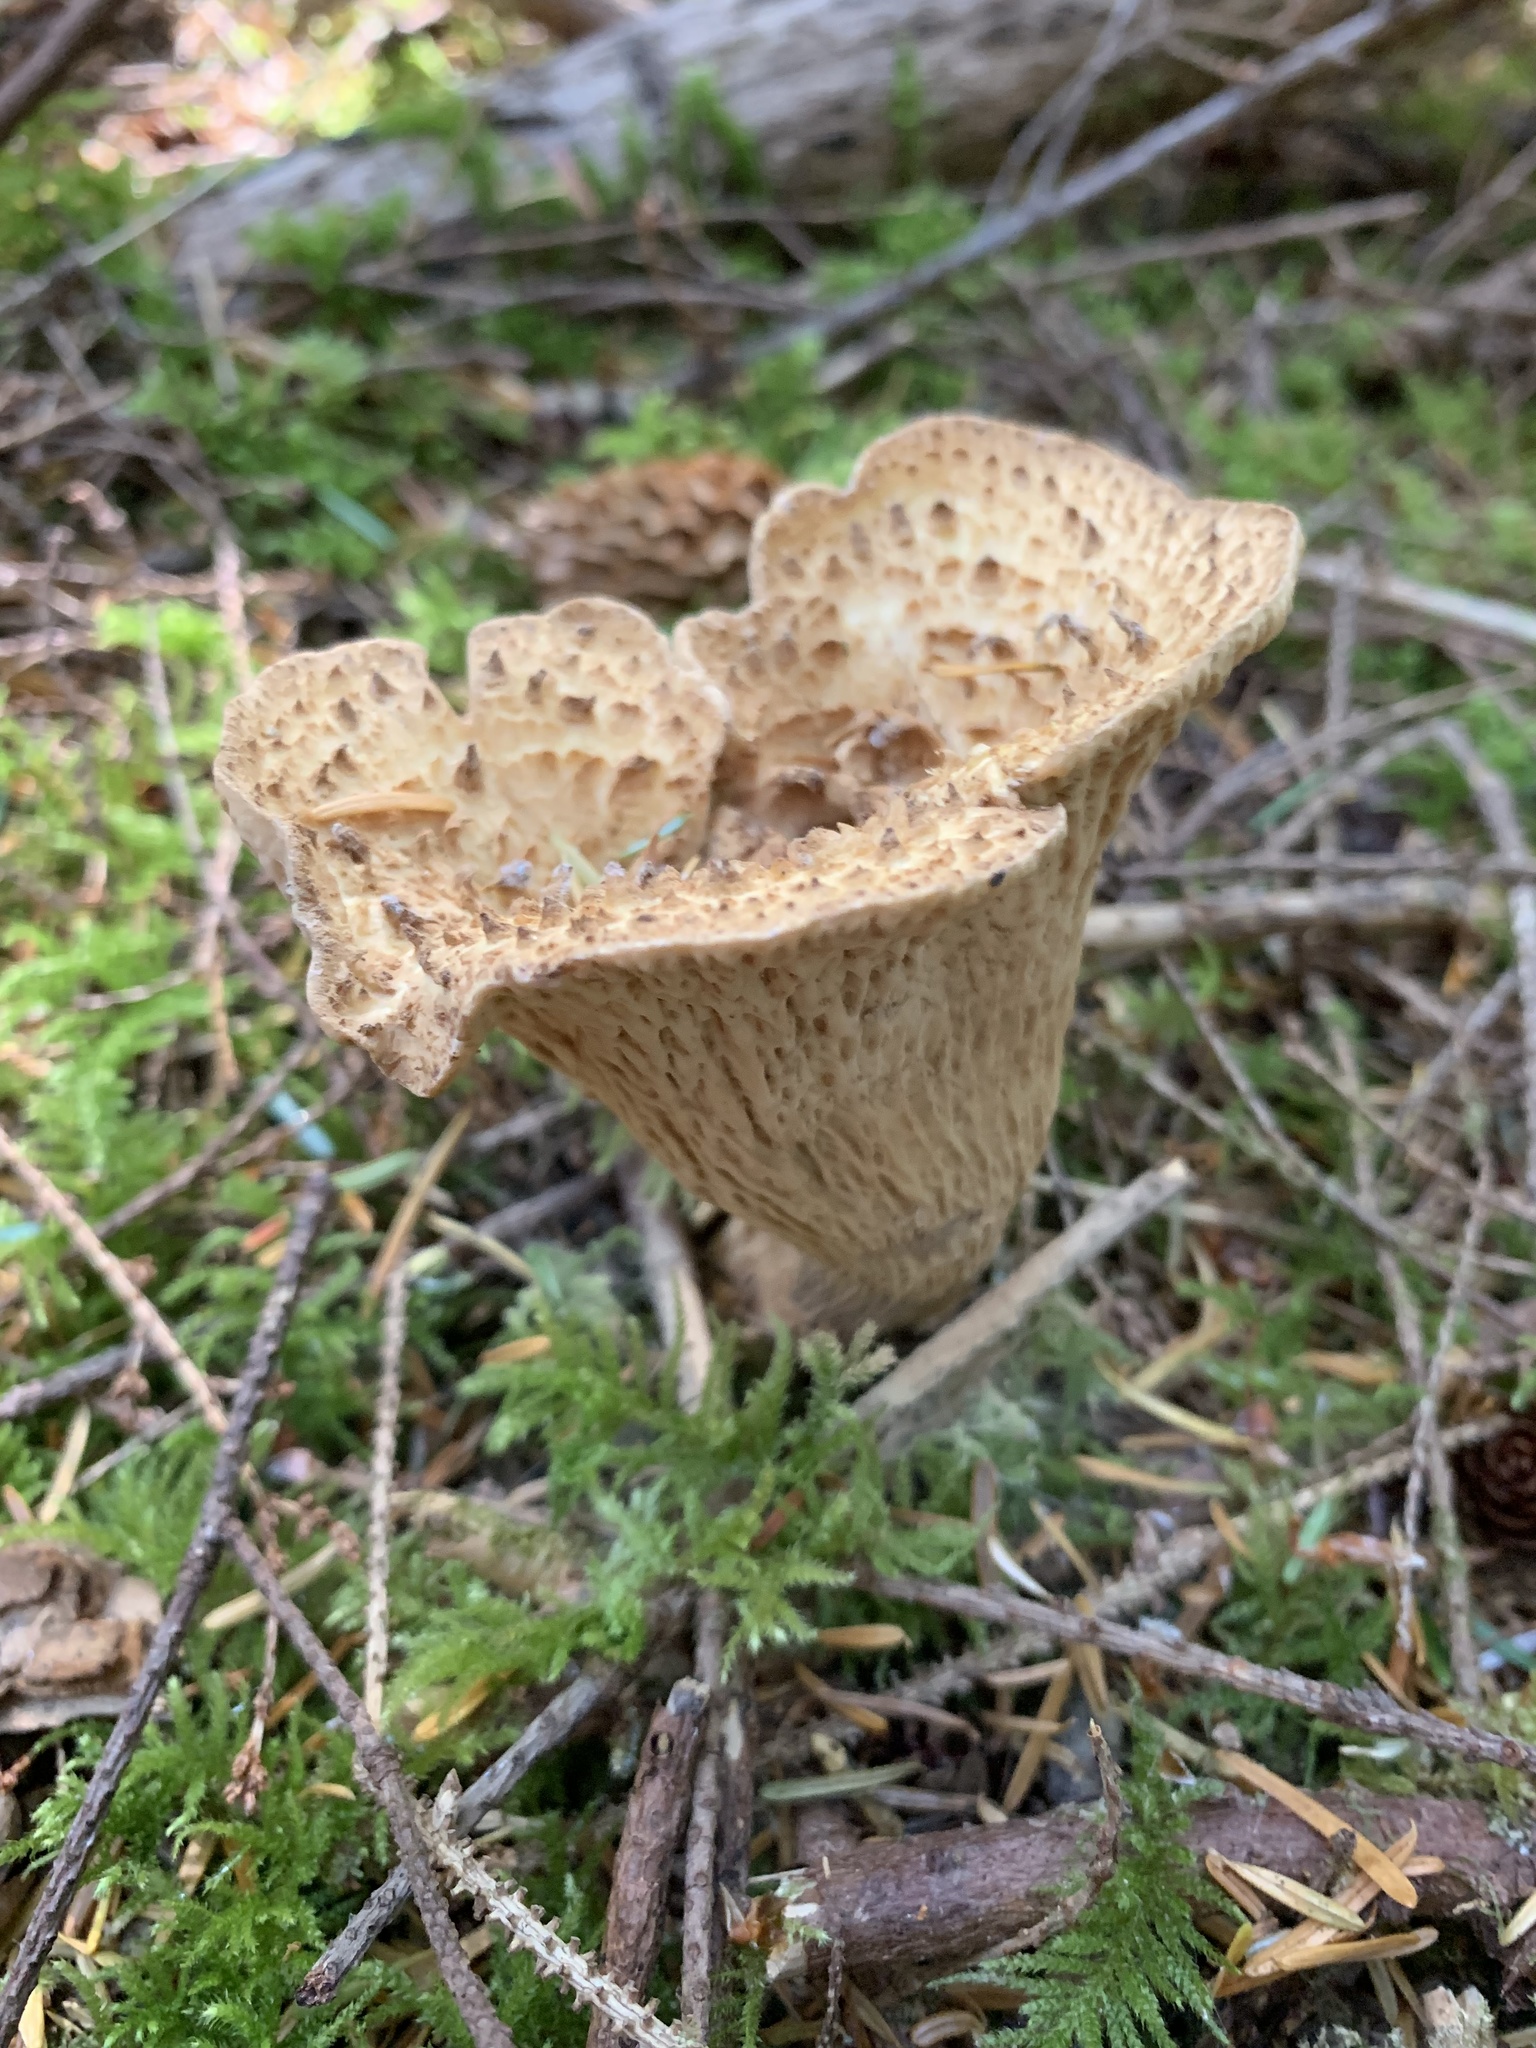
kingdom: Fungi
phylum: Basidiomycota
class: Agaricomycetes
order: Gomphales
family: Gomphaceae
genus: Turbinellus
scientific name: Turbinellus kauffmanii
